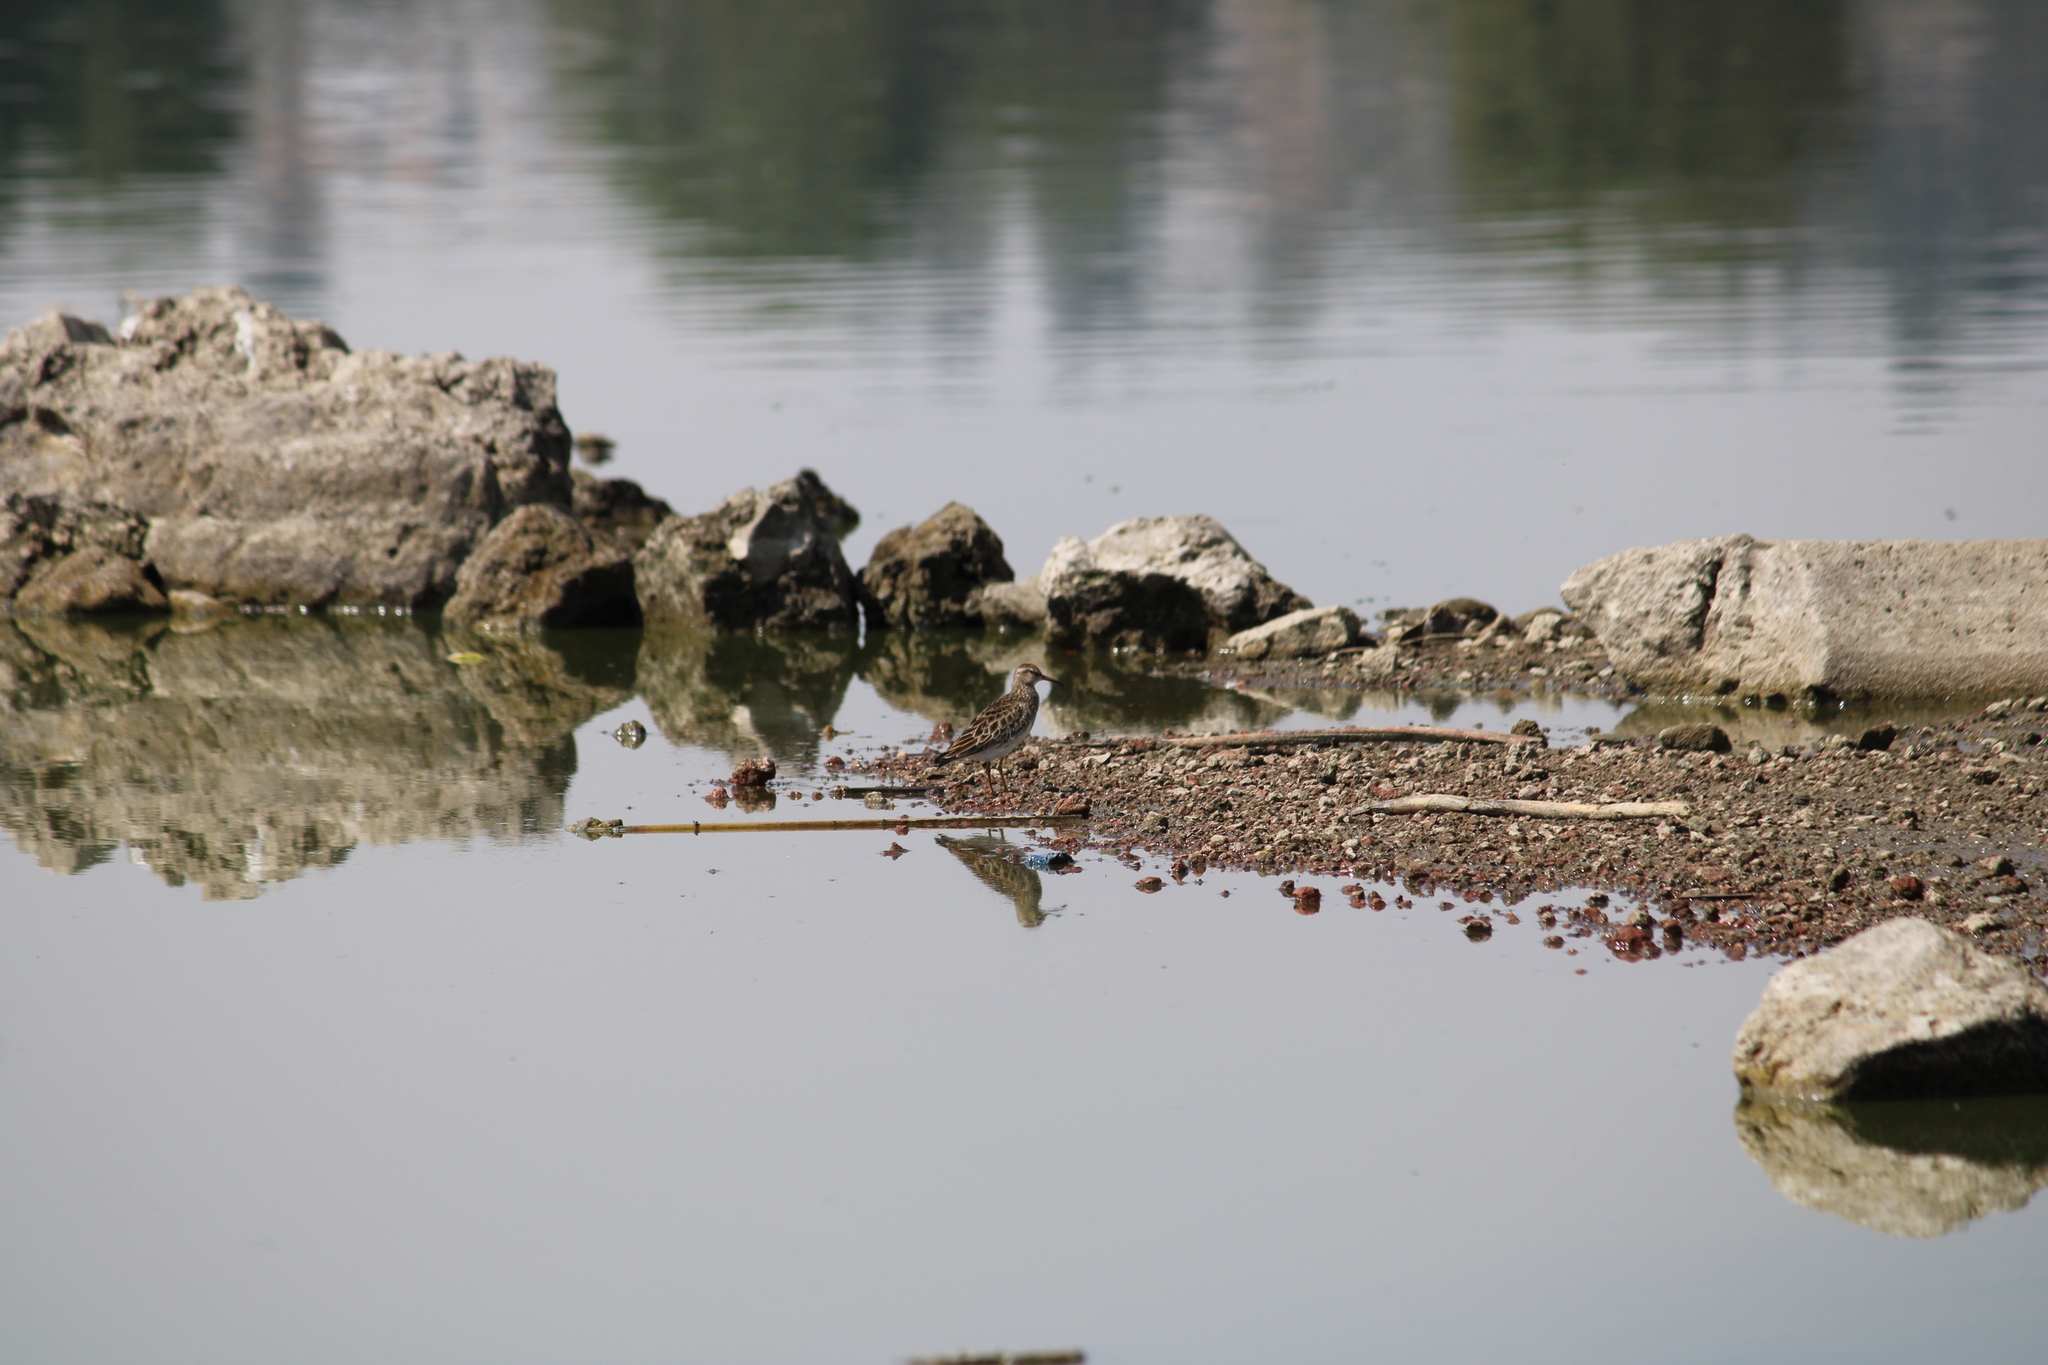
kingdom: Animalia
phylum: Chordata
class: Aves
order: Charadriiformes
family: Scolopacidae
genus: Calidris
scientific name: Calidris melanotos
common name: Pectoral sandpiper
